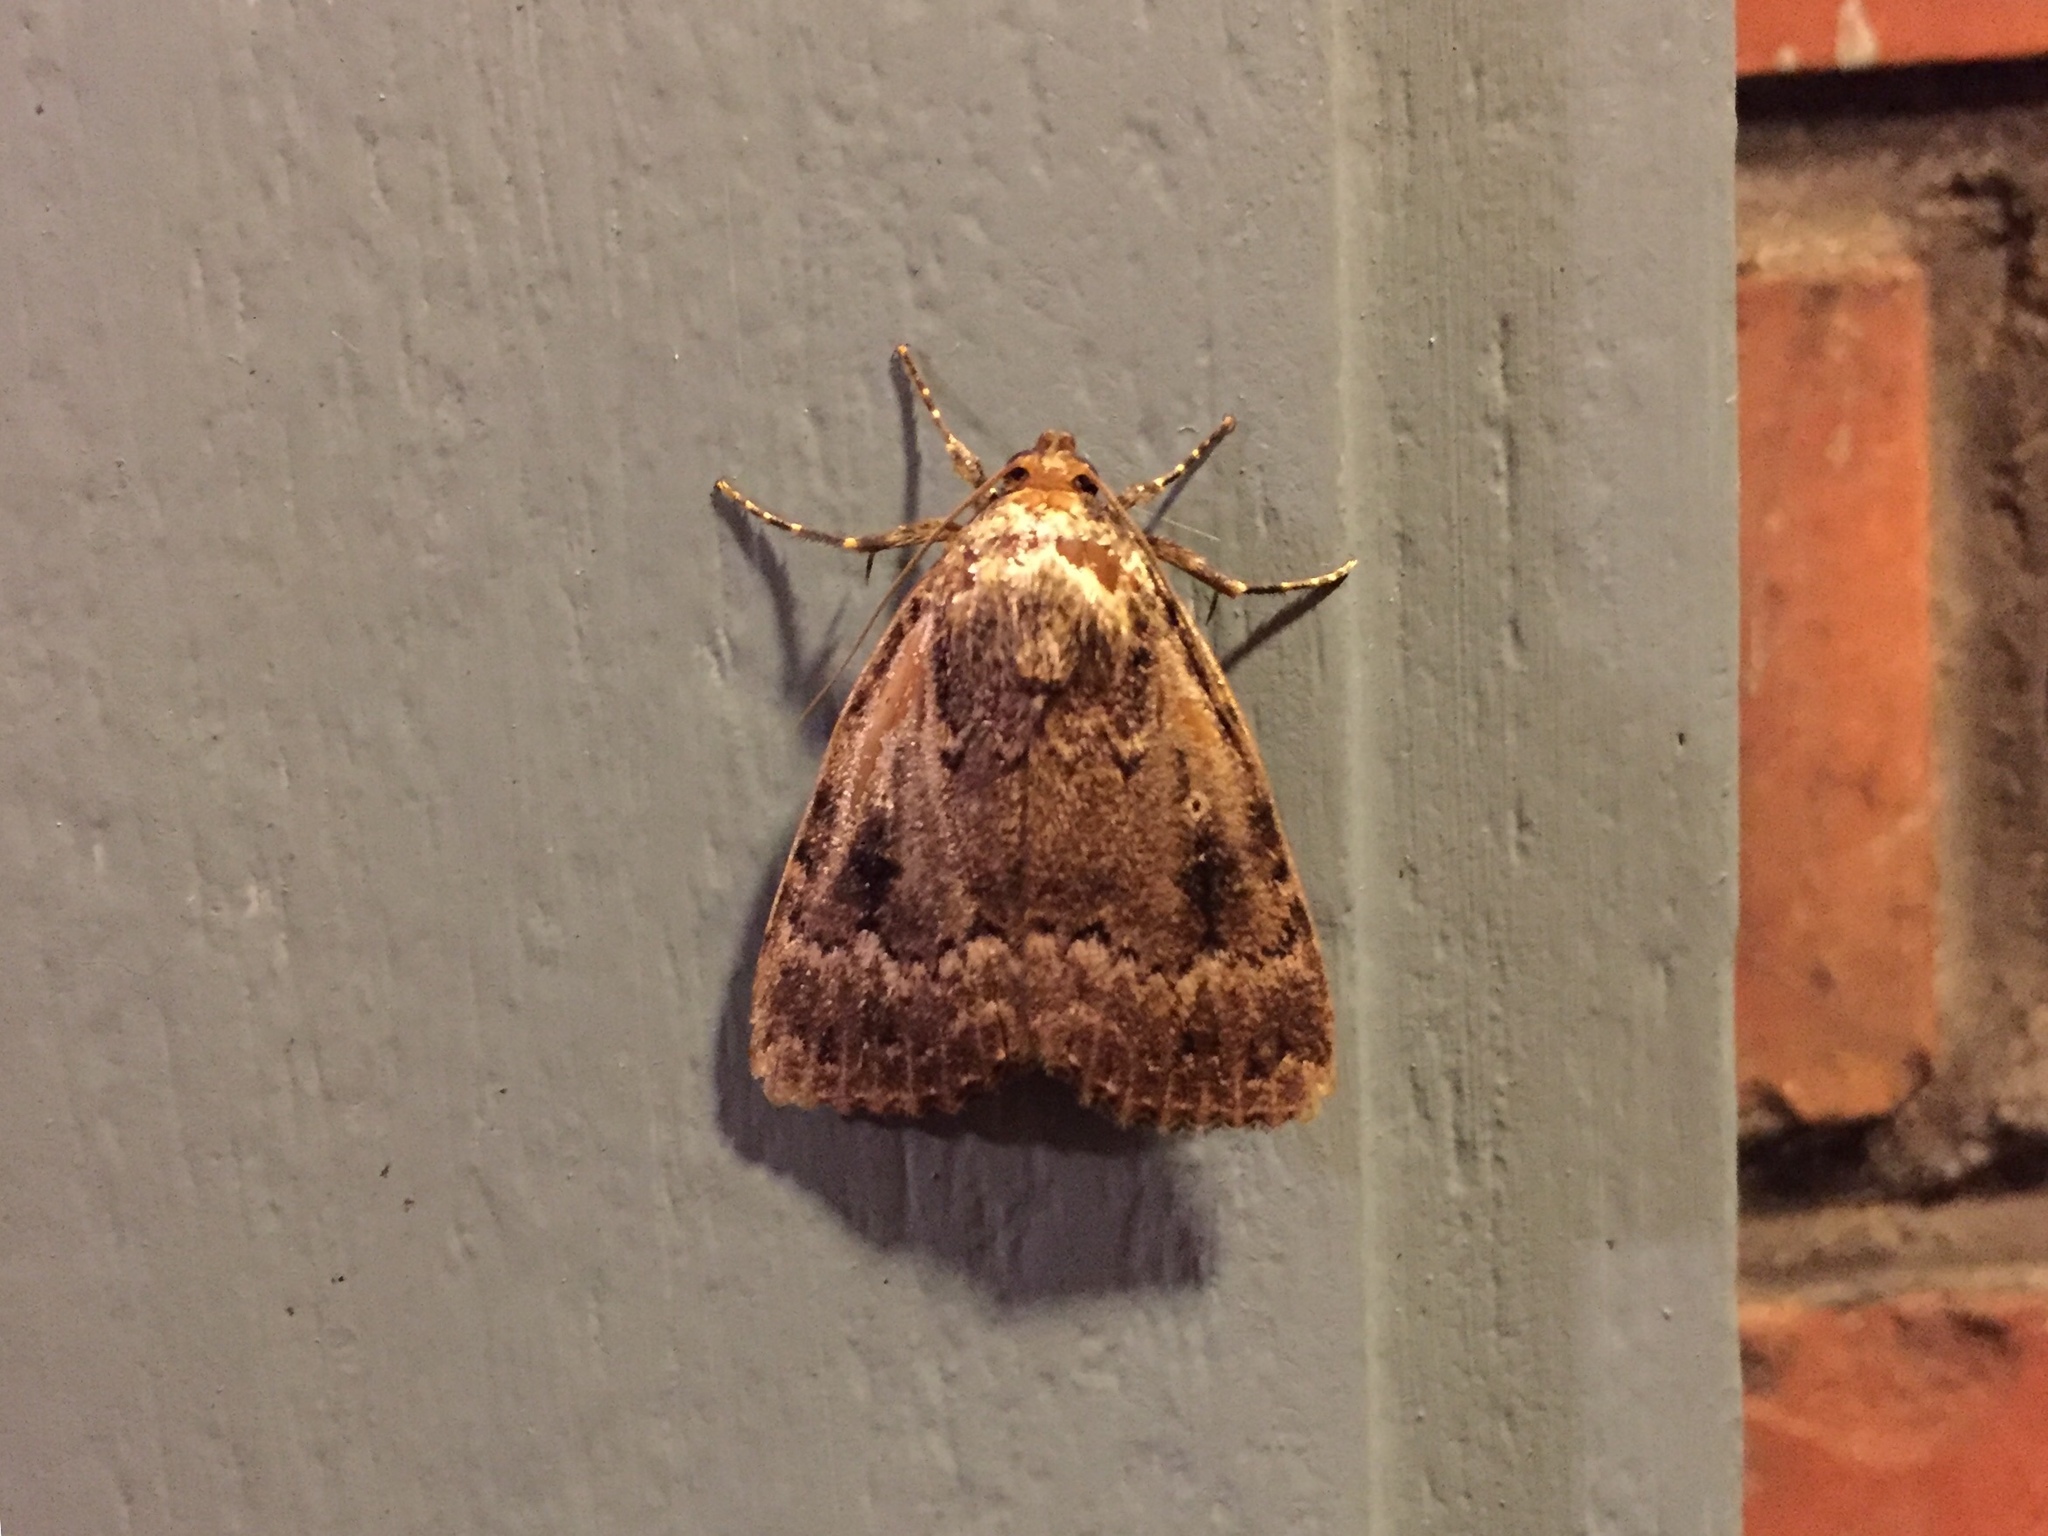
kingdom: Animalia
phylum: Arthropoda
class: Insecta
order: Lepidoptera
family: Noctuidae
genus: Amphipyra
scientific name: Amphipyra pyramidea
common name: Copper underwing
